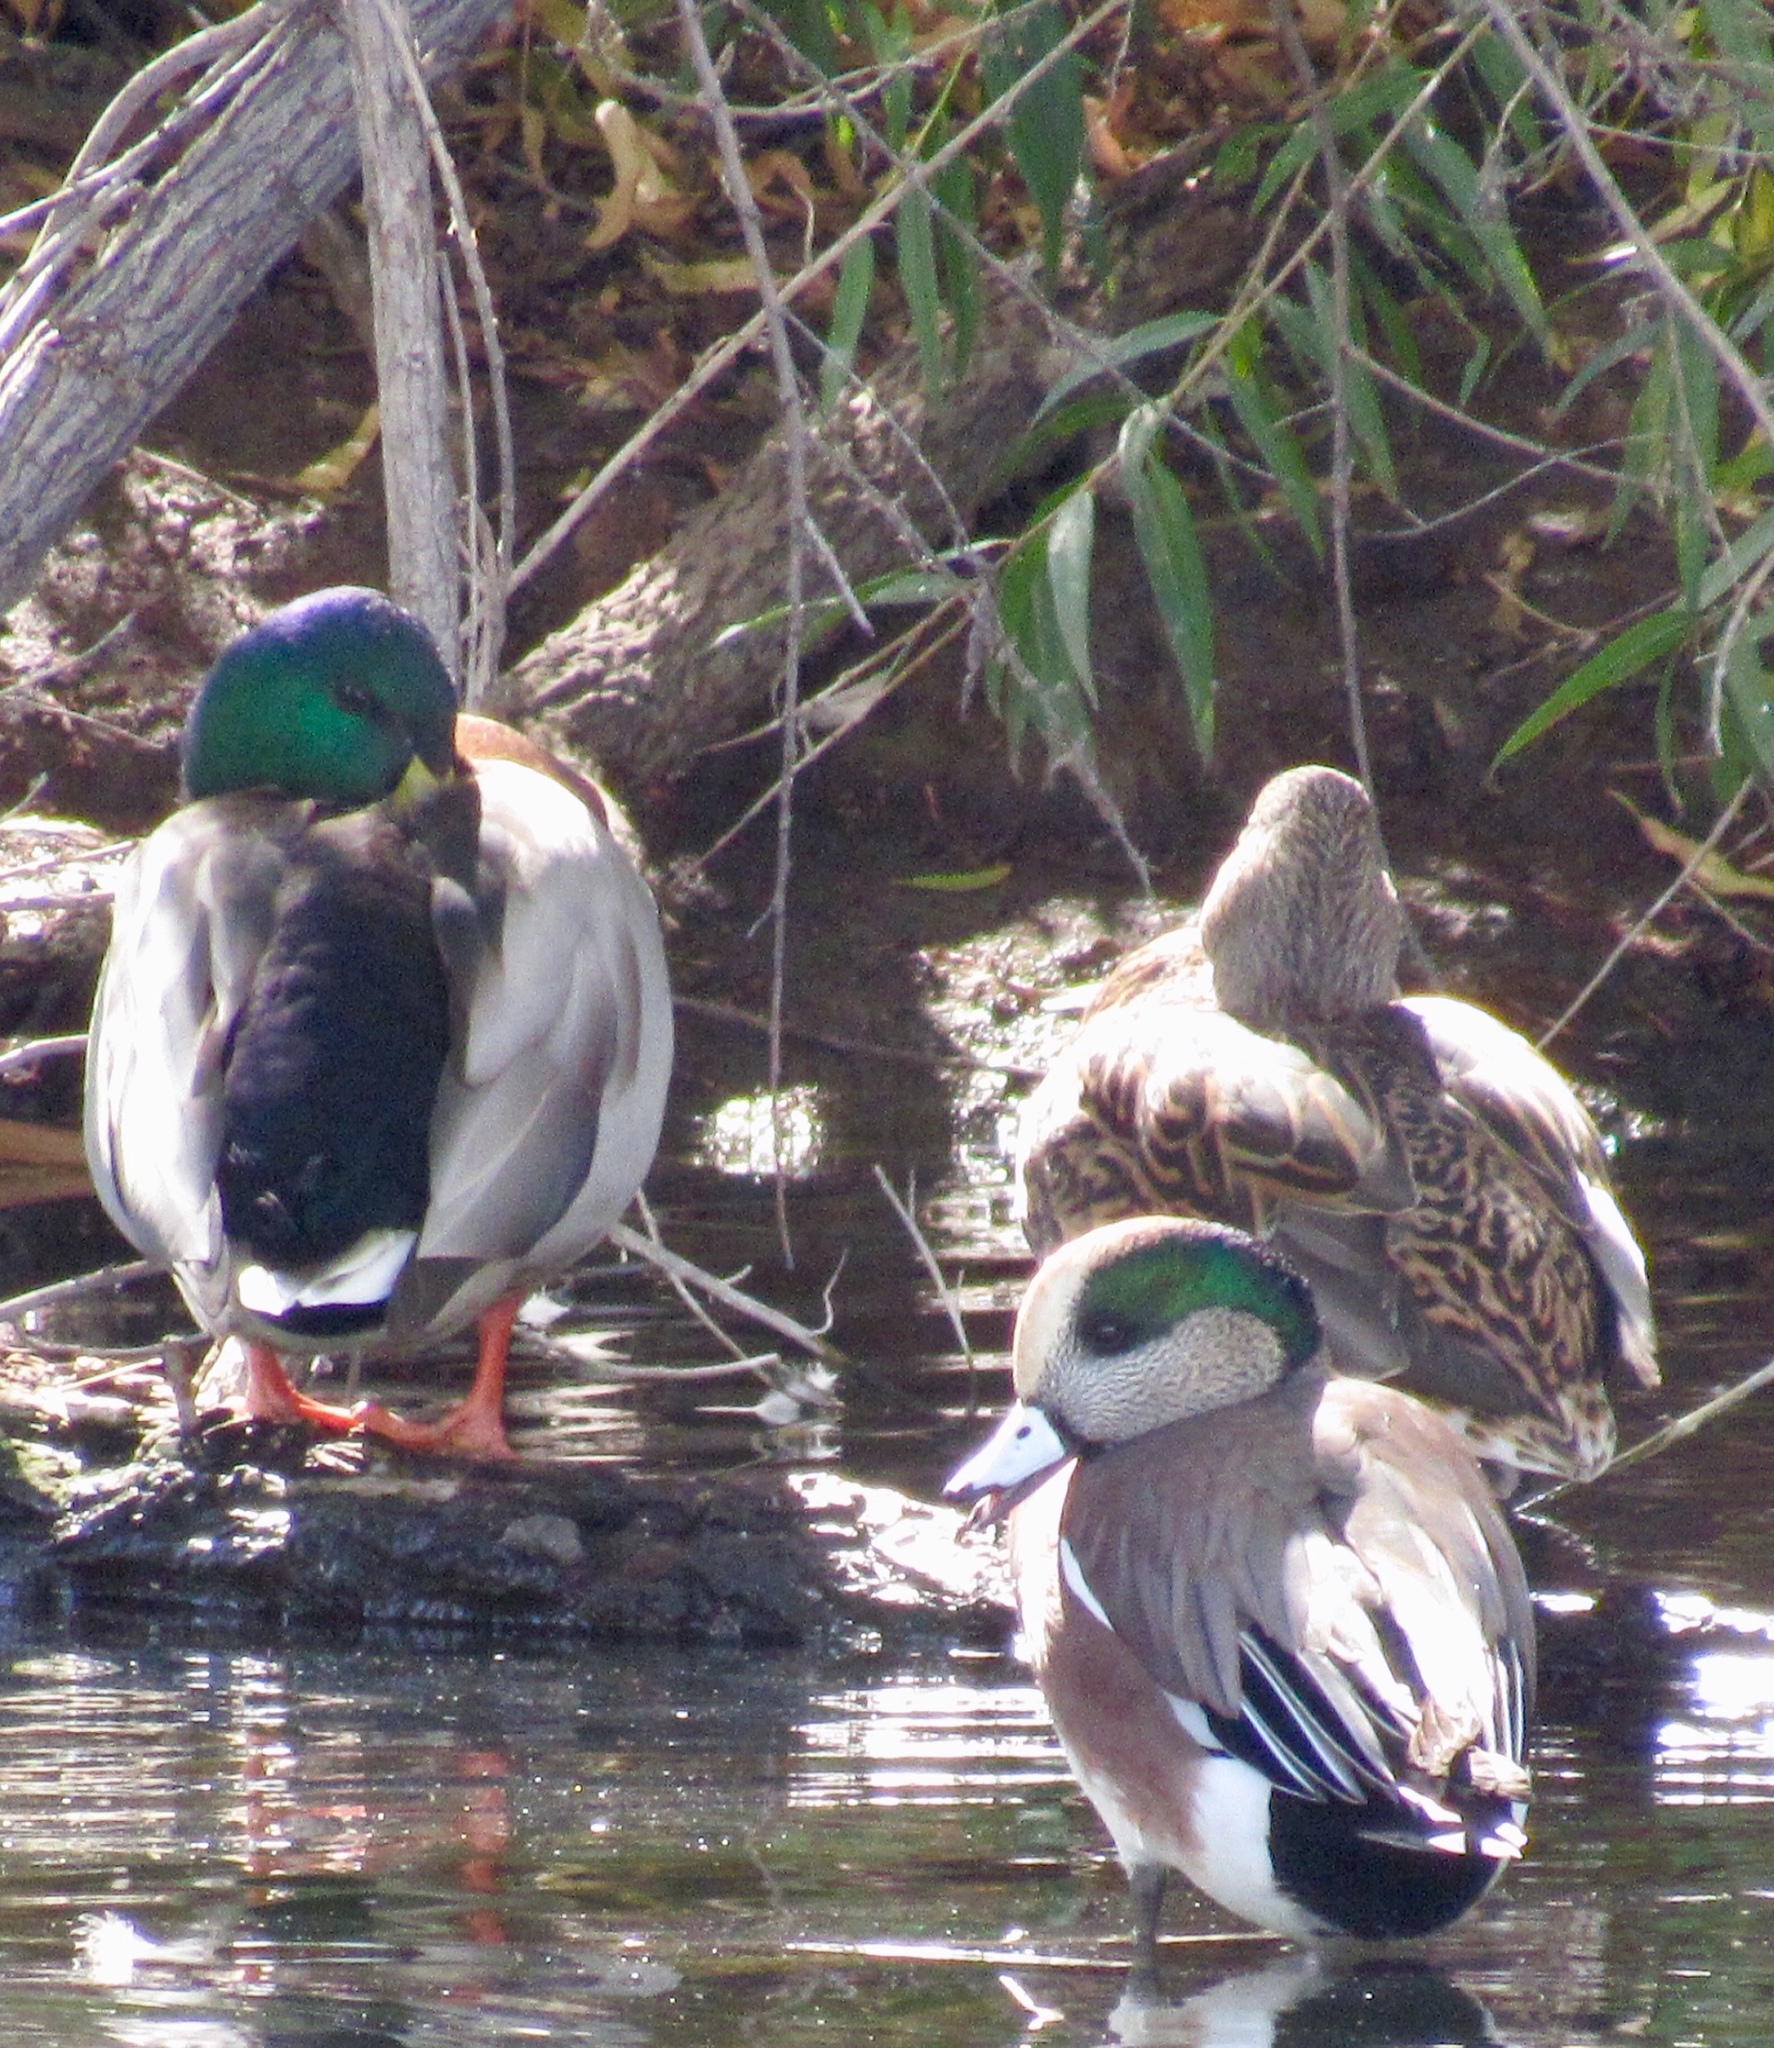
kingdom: Animalia
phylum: Chordata
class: Aves
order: Anseriformes
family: Anatidae
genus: Anas
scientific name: Anas platyrhynchos
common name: Mallard
